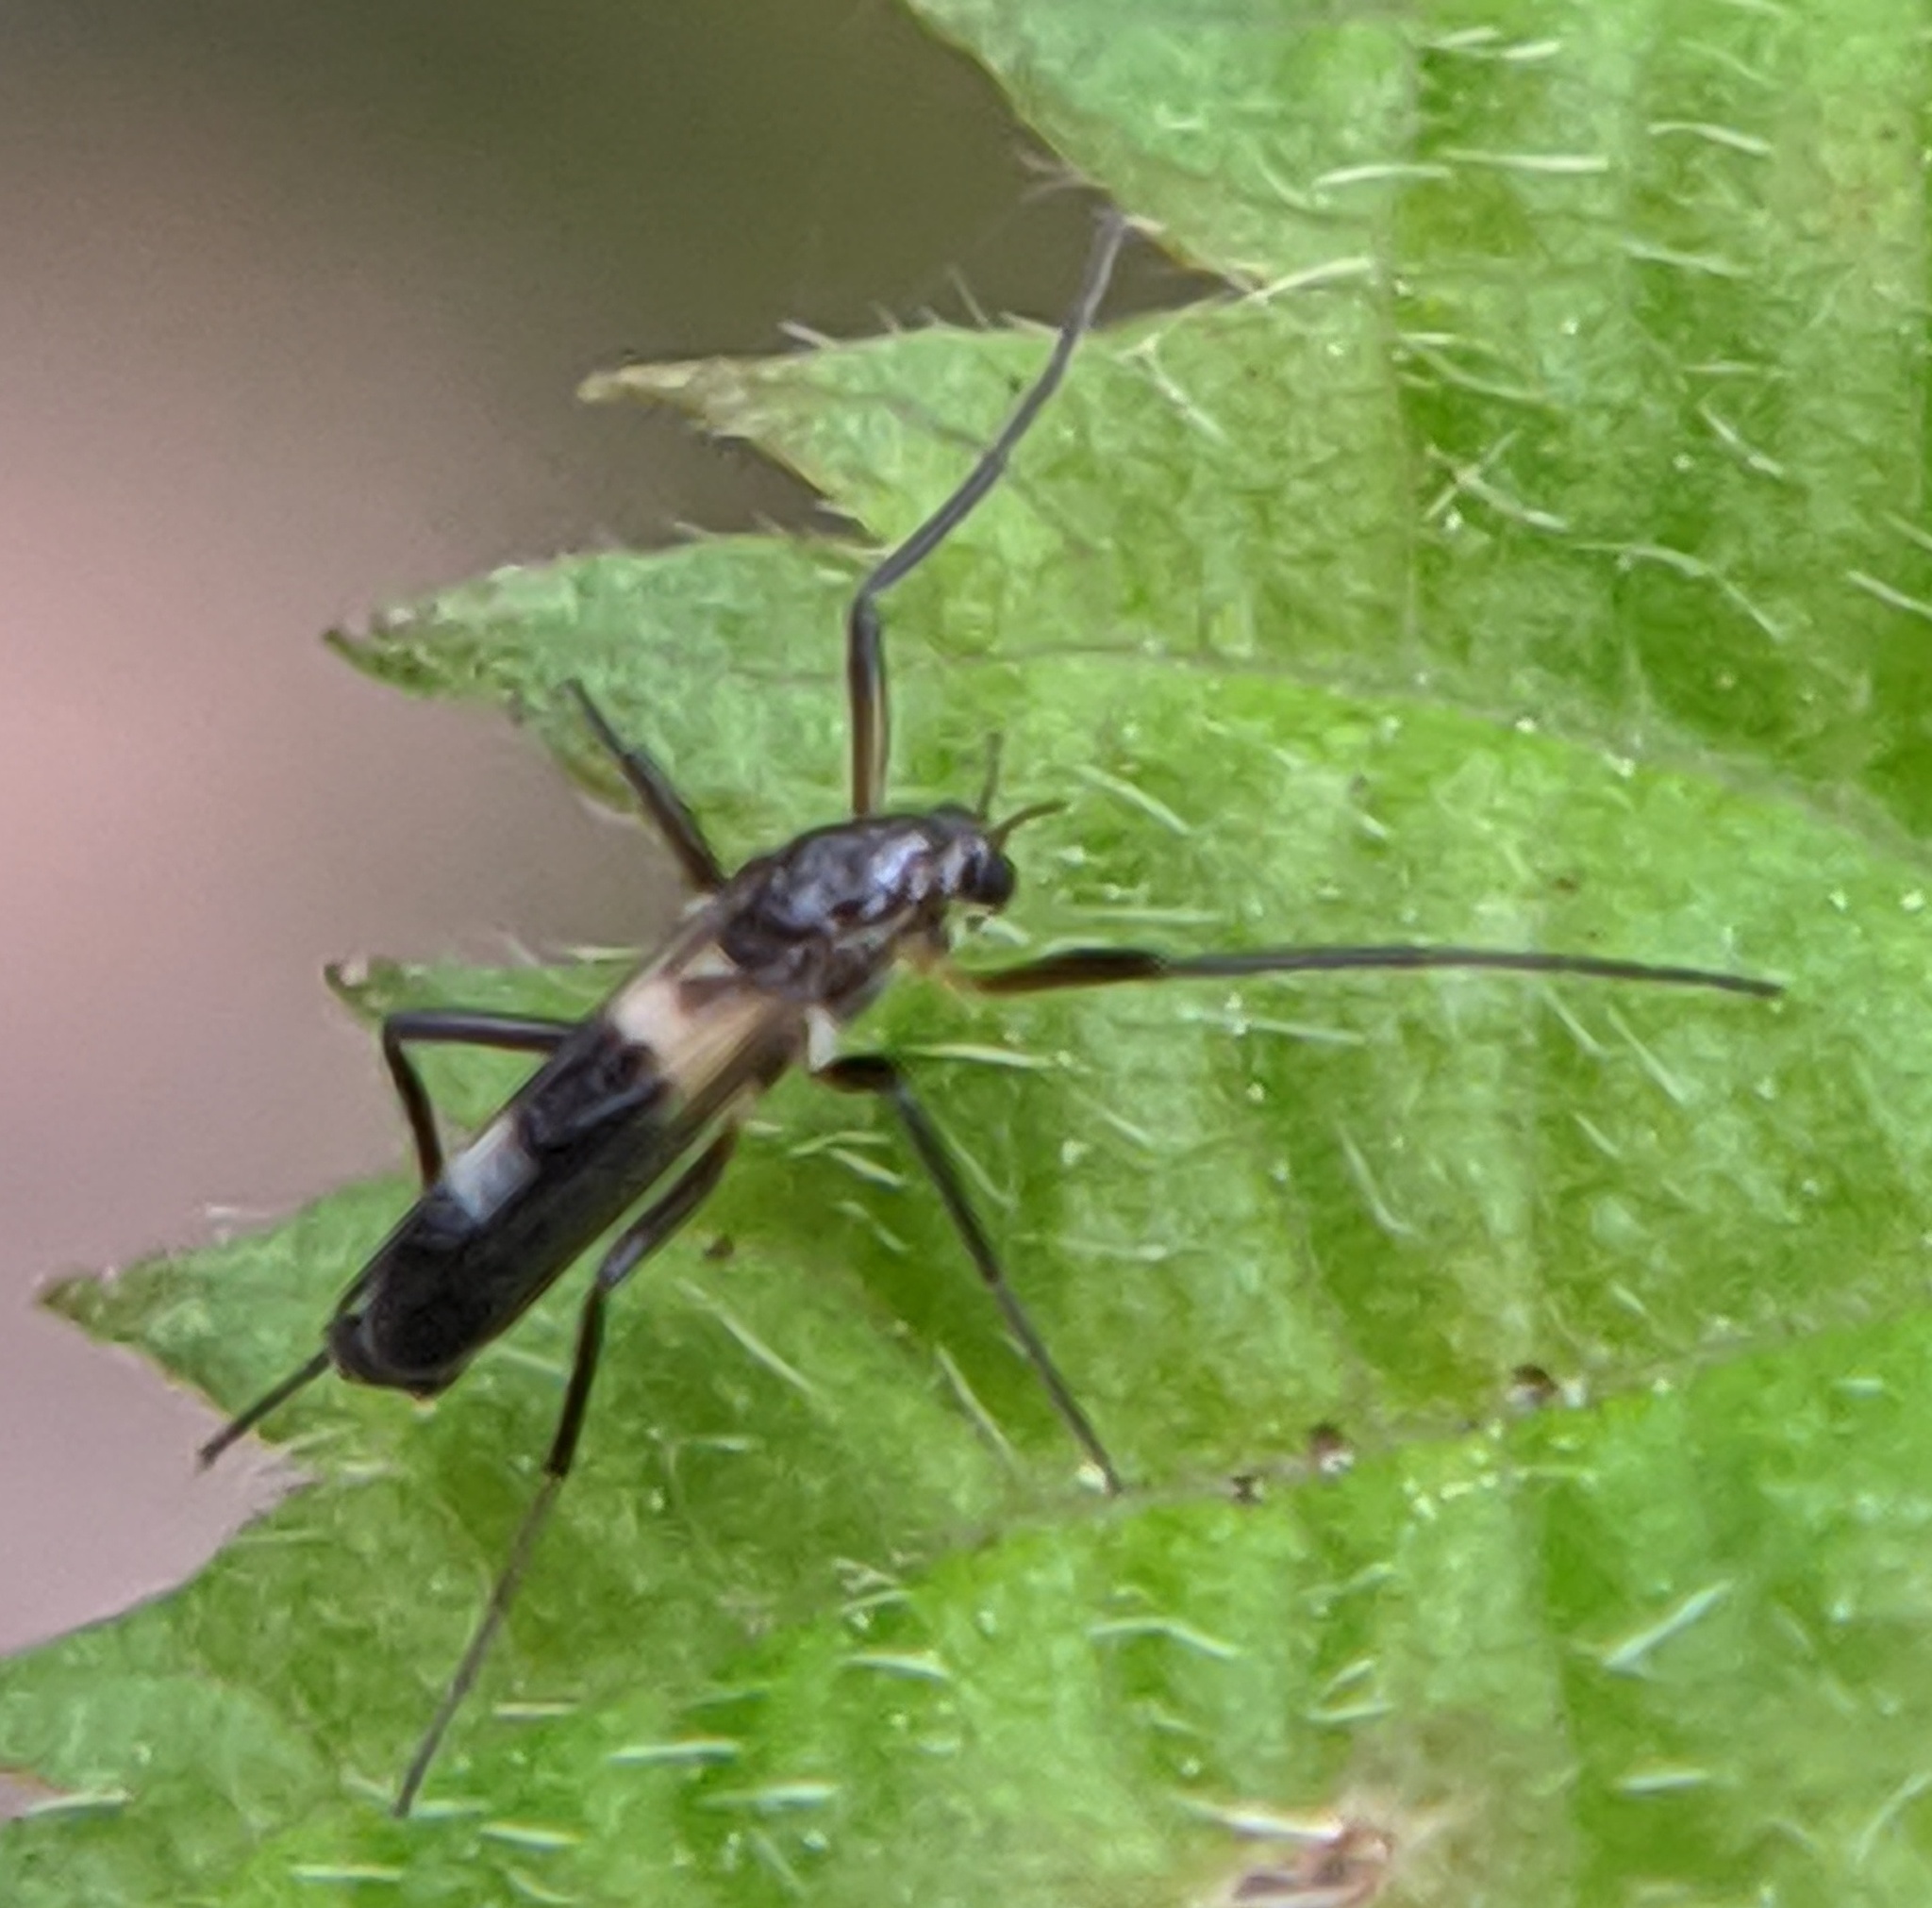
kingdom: Animalia
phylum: Arthropoda
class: Insecta
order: Diptera
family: Chironomidae
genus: Chasmatonotus
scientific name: Chasmatonotus atripes
